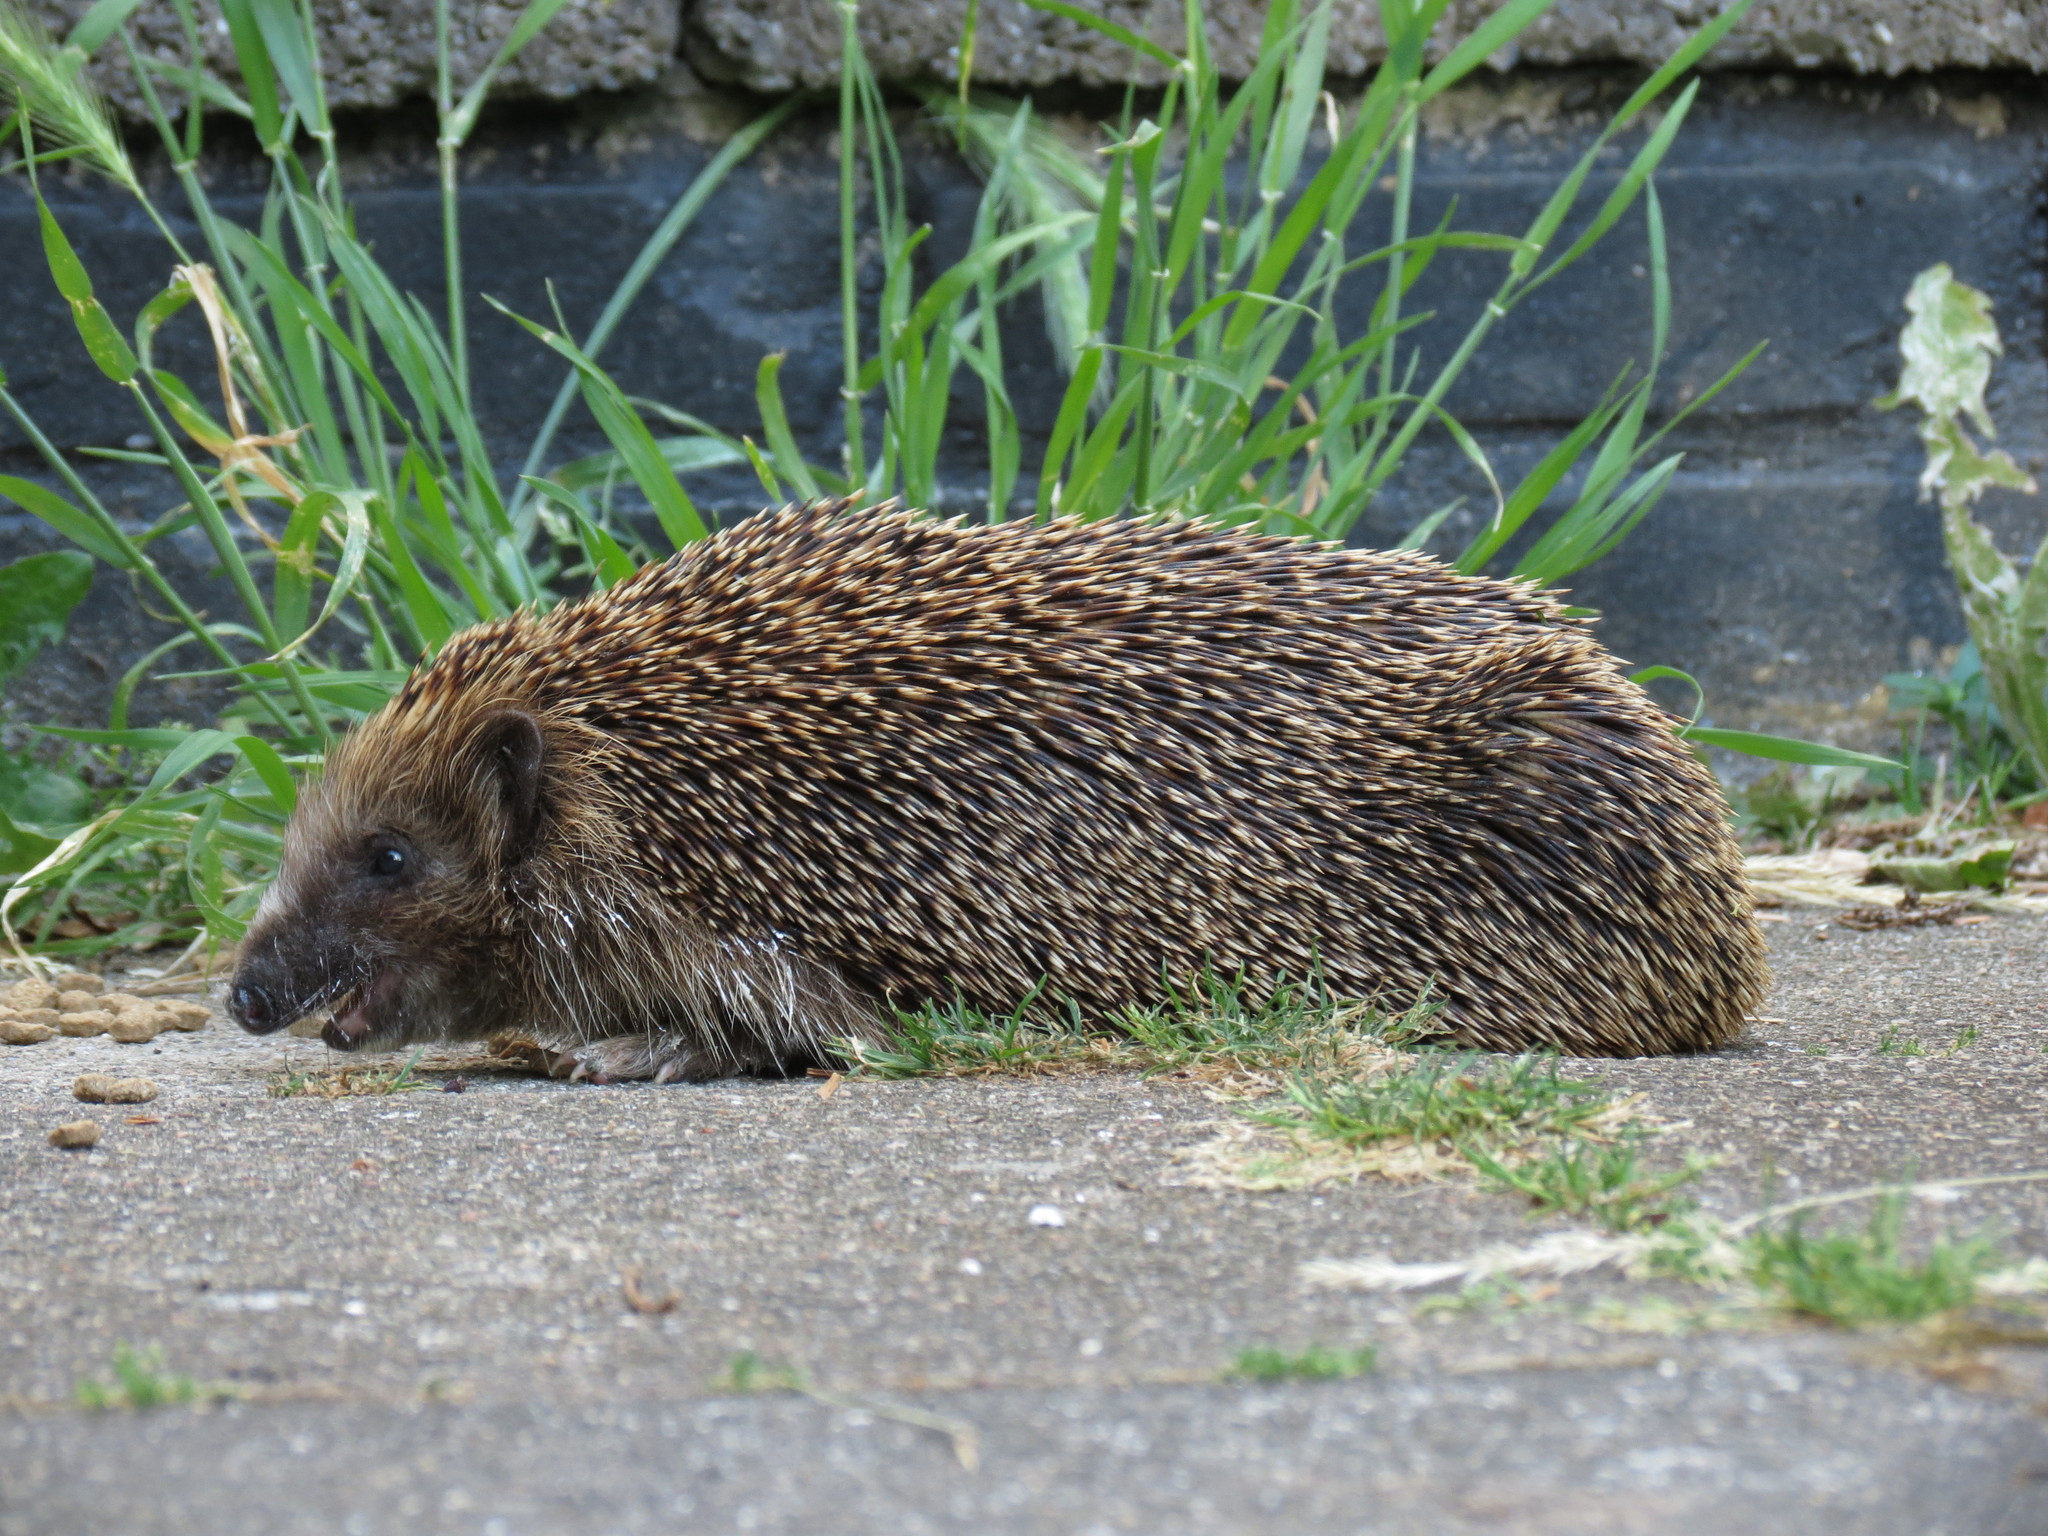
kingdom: Animalia
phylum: Chordata
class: Mammalia
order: Erinaceomorpha
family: Erinaceidae
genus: Erinaceus
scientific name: Erinaceus europaeus
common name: West european hedgehog
